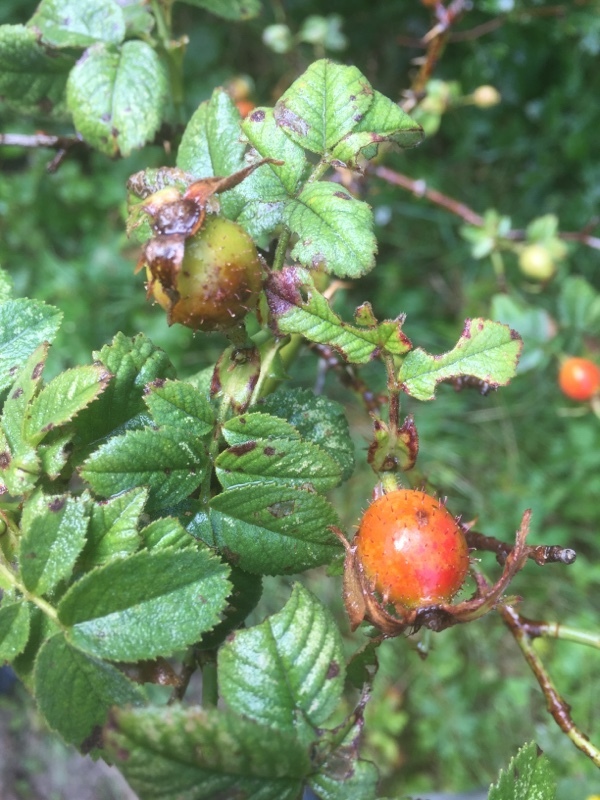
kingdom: Plantae
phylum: Tracheophyta
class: Magnoliopsida
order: Rosales
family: Rosaceae
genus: Rosa
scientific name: Rosa micrantha
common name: Small-flowered sweet-briar
